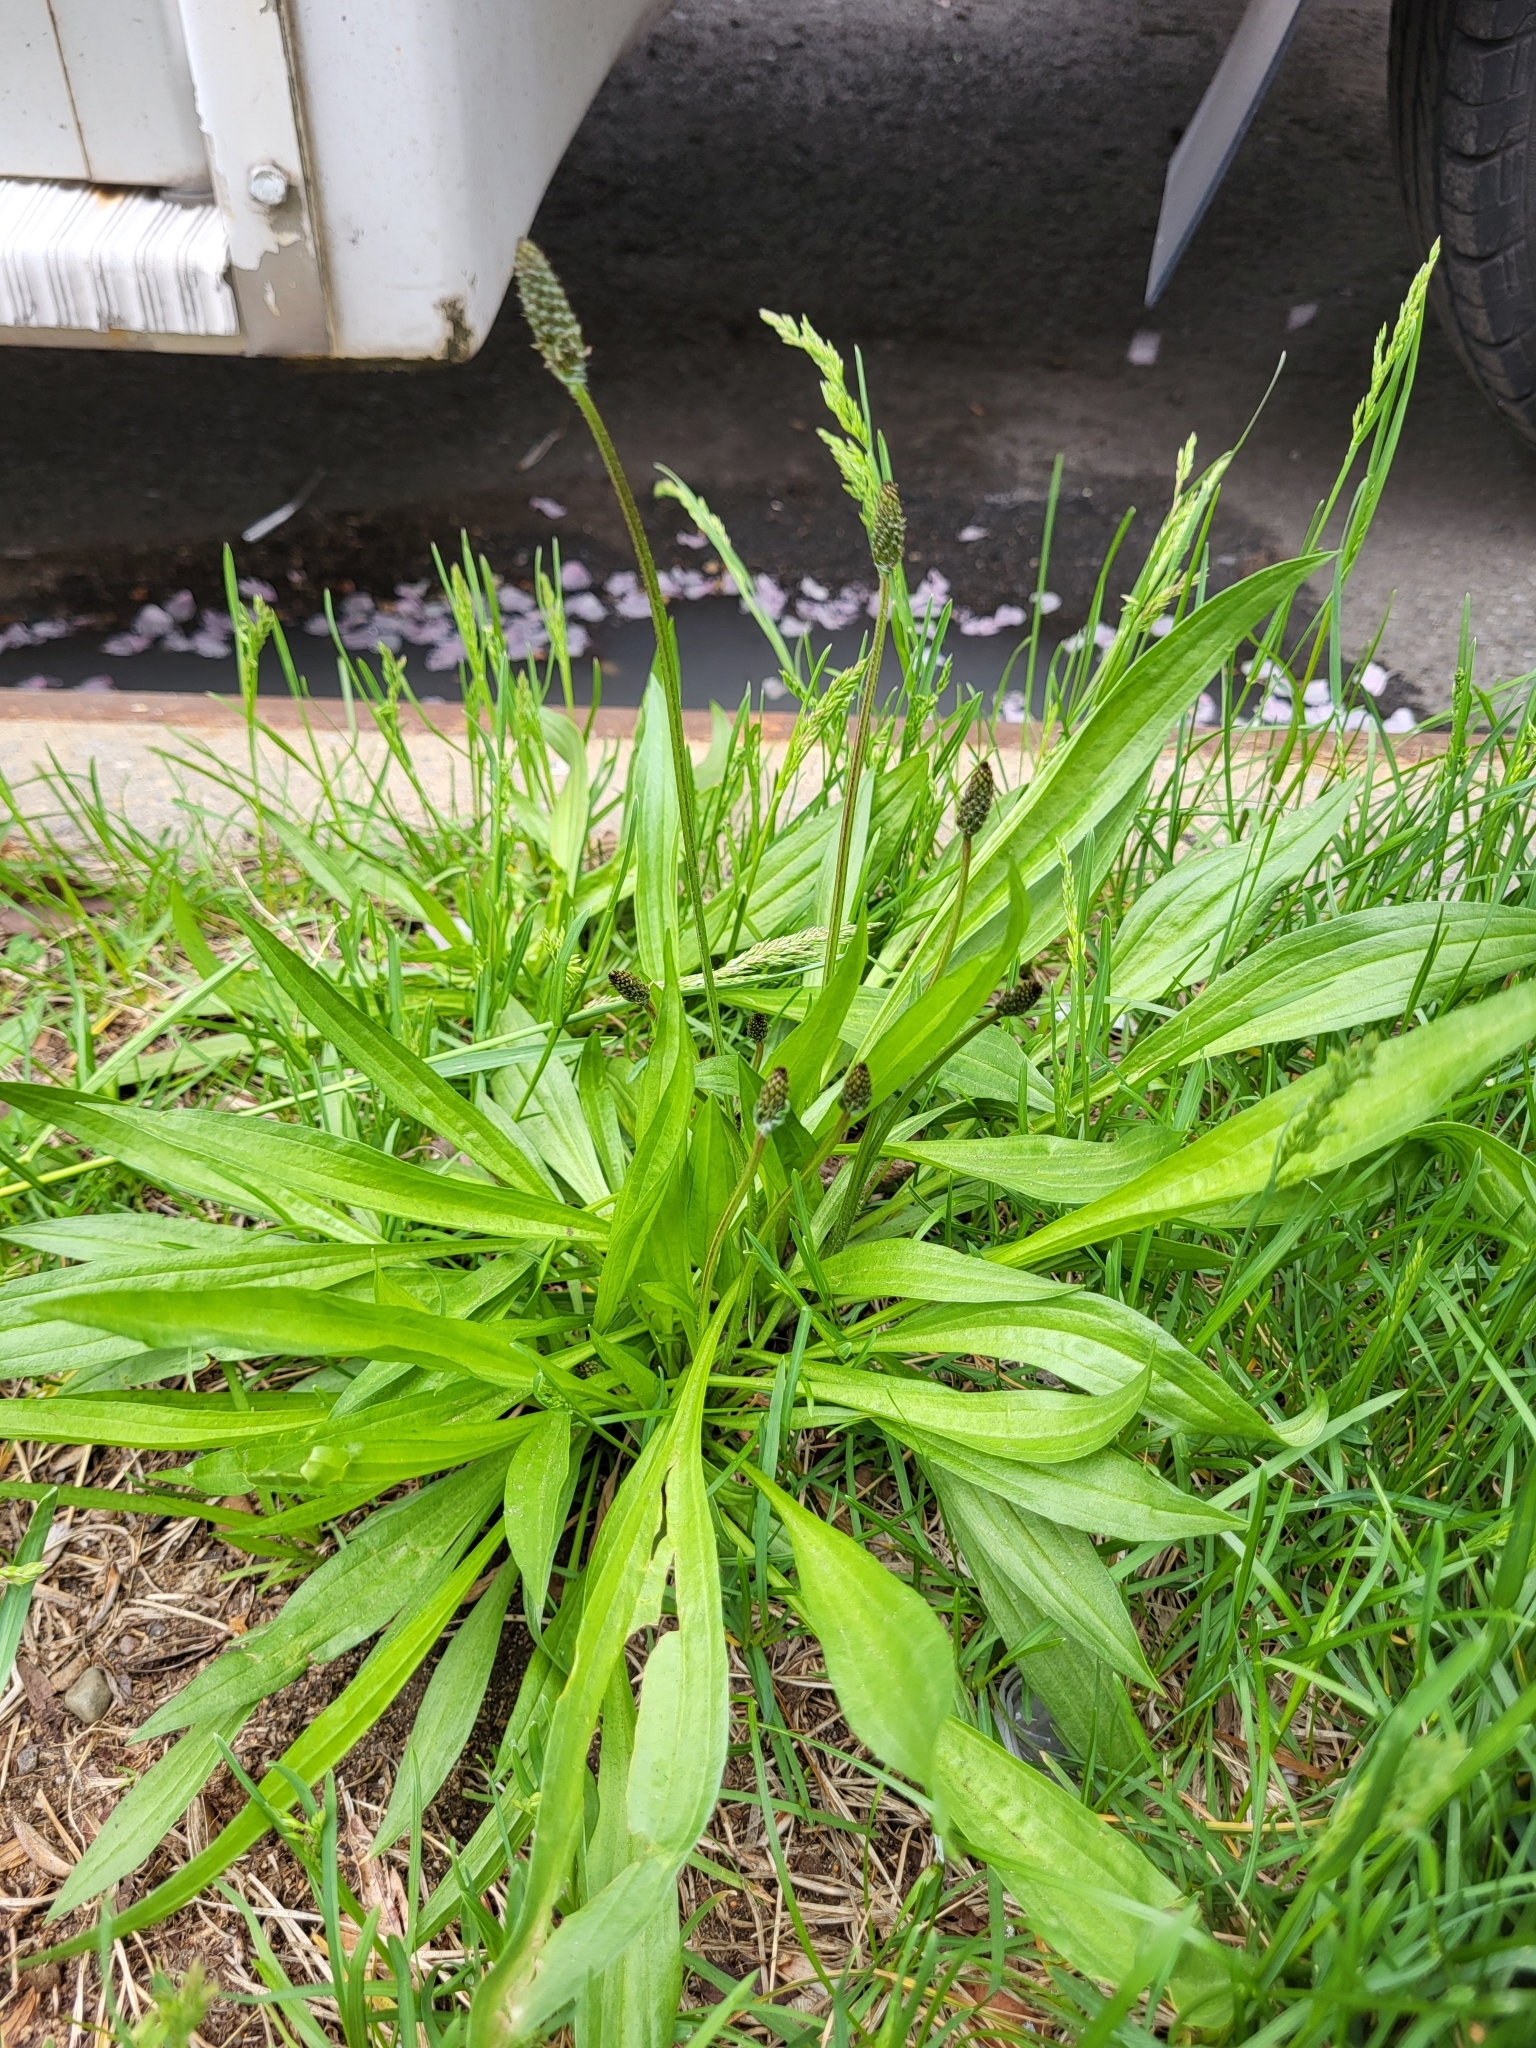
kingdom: Plantae
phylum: Tracheophyta
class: Magnoliopsida
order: Lamiales
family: Plantaginaceae
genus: Plantago
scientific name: Plantago lanceolata
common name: Ribwort plantain
